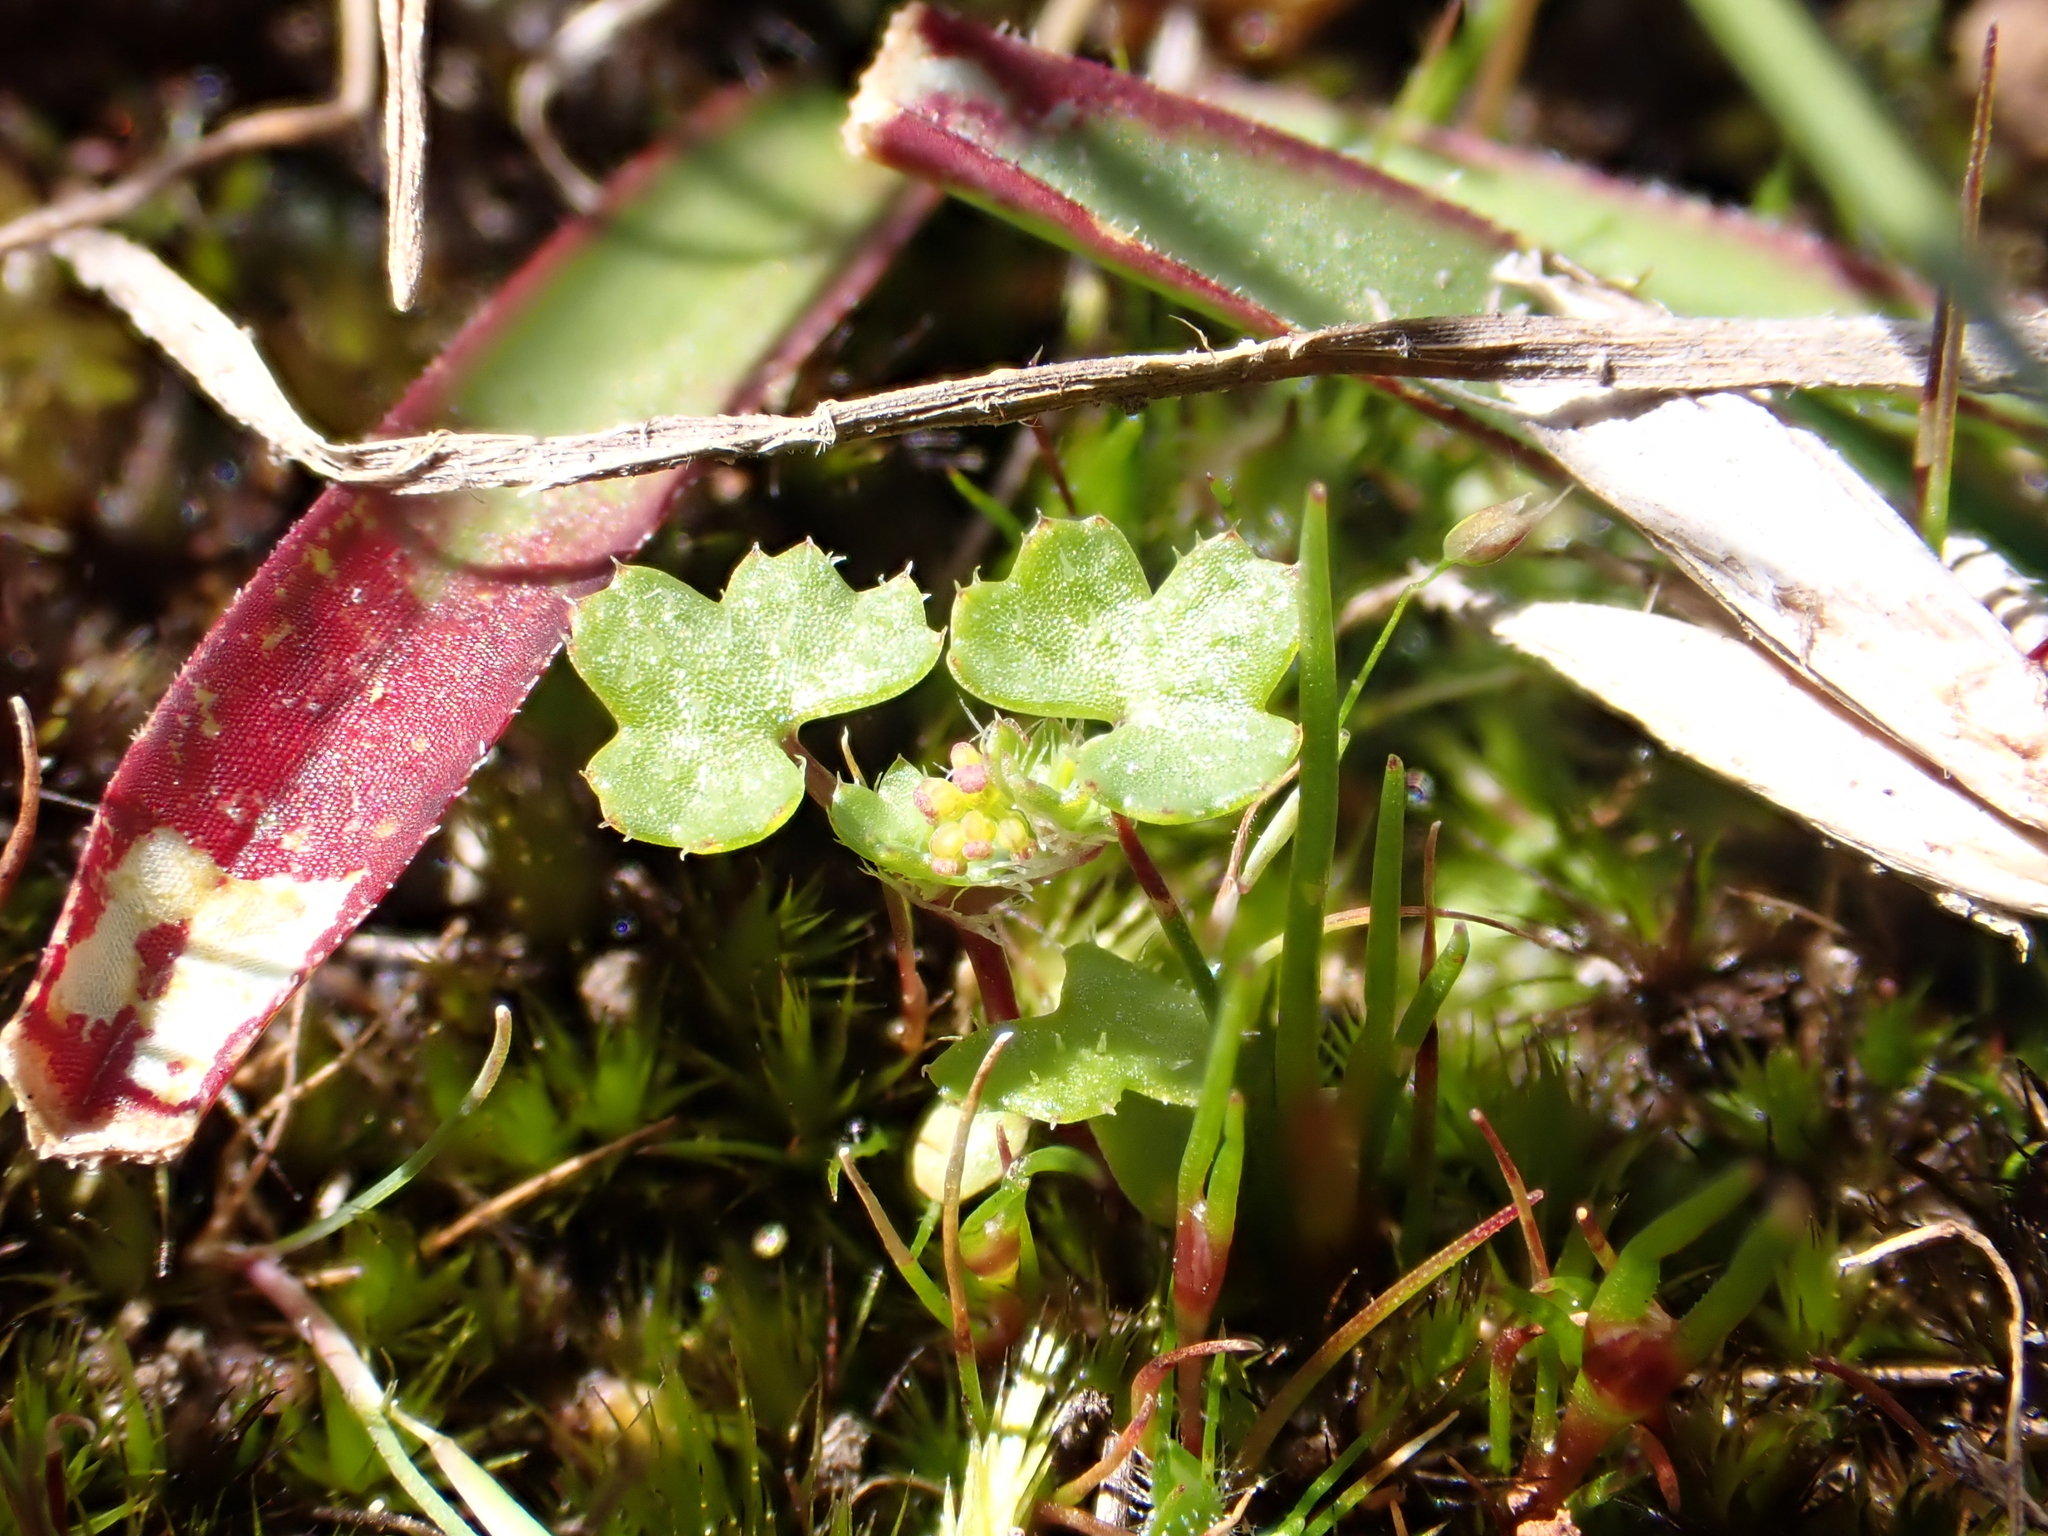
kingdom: Plantae
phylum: Tracheophyta
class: Magnoliopsida
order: Apiales
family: Araliaceae
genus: Hydrocotyle
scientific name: Hydrocotyle callicarpa
